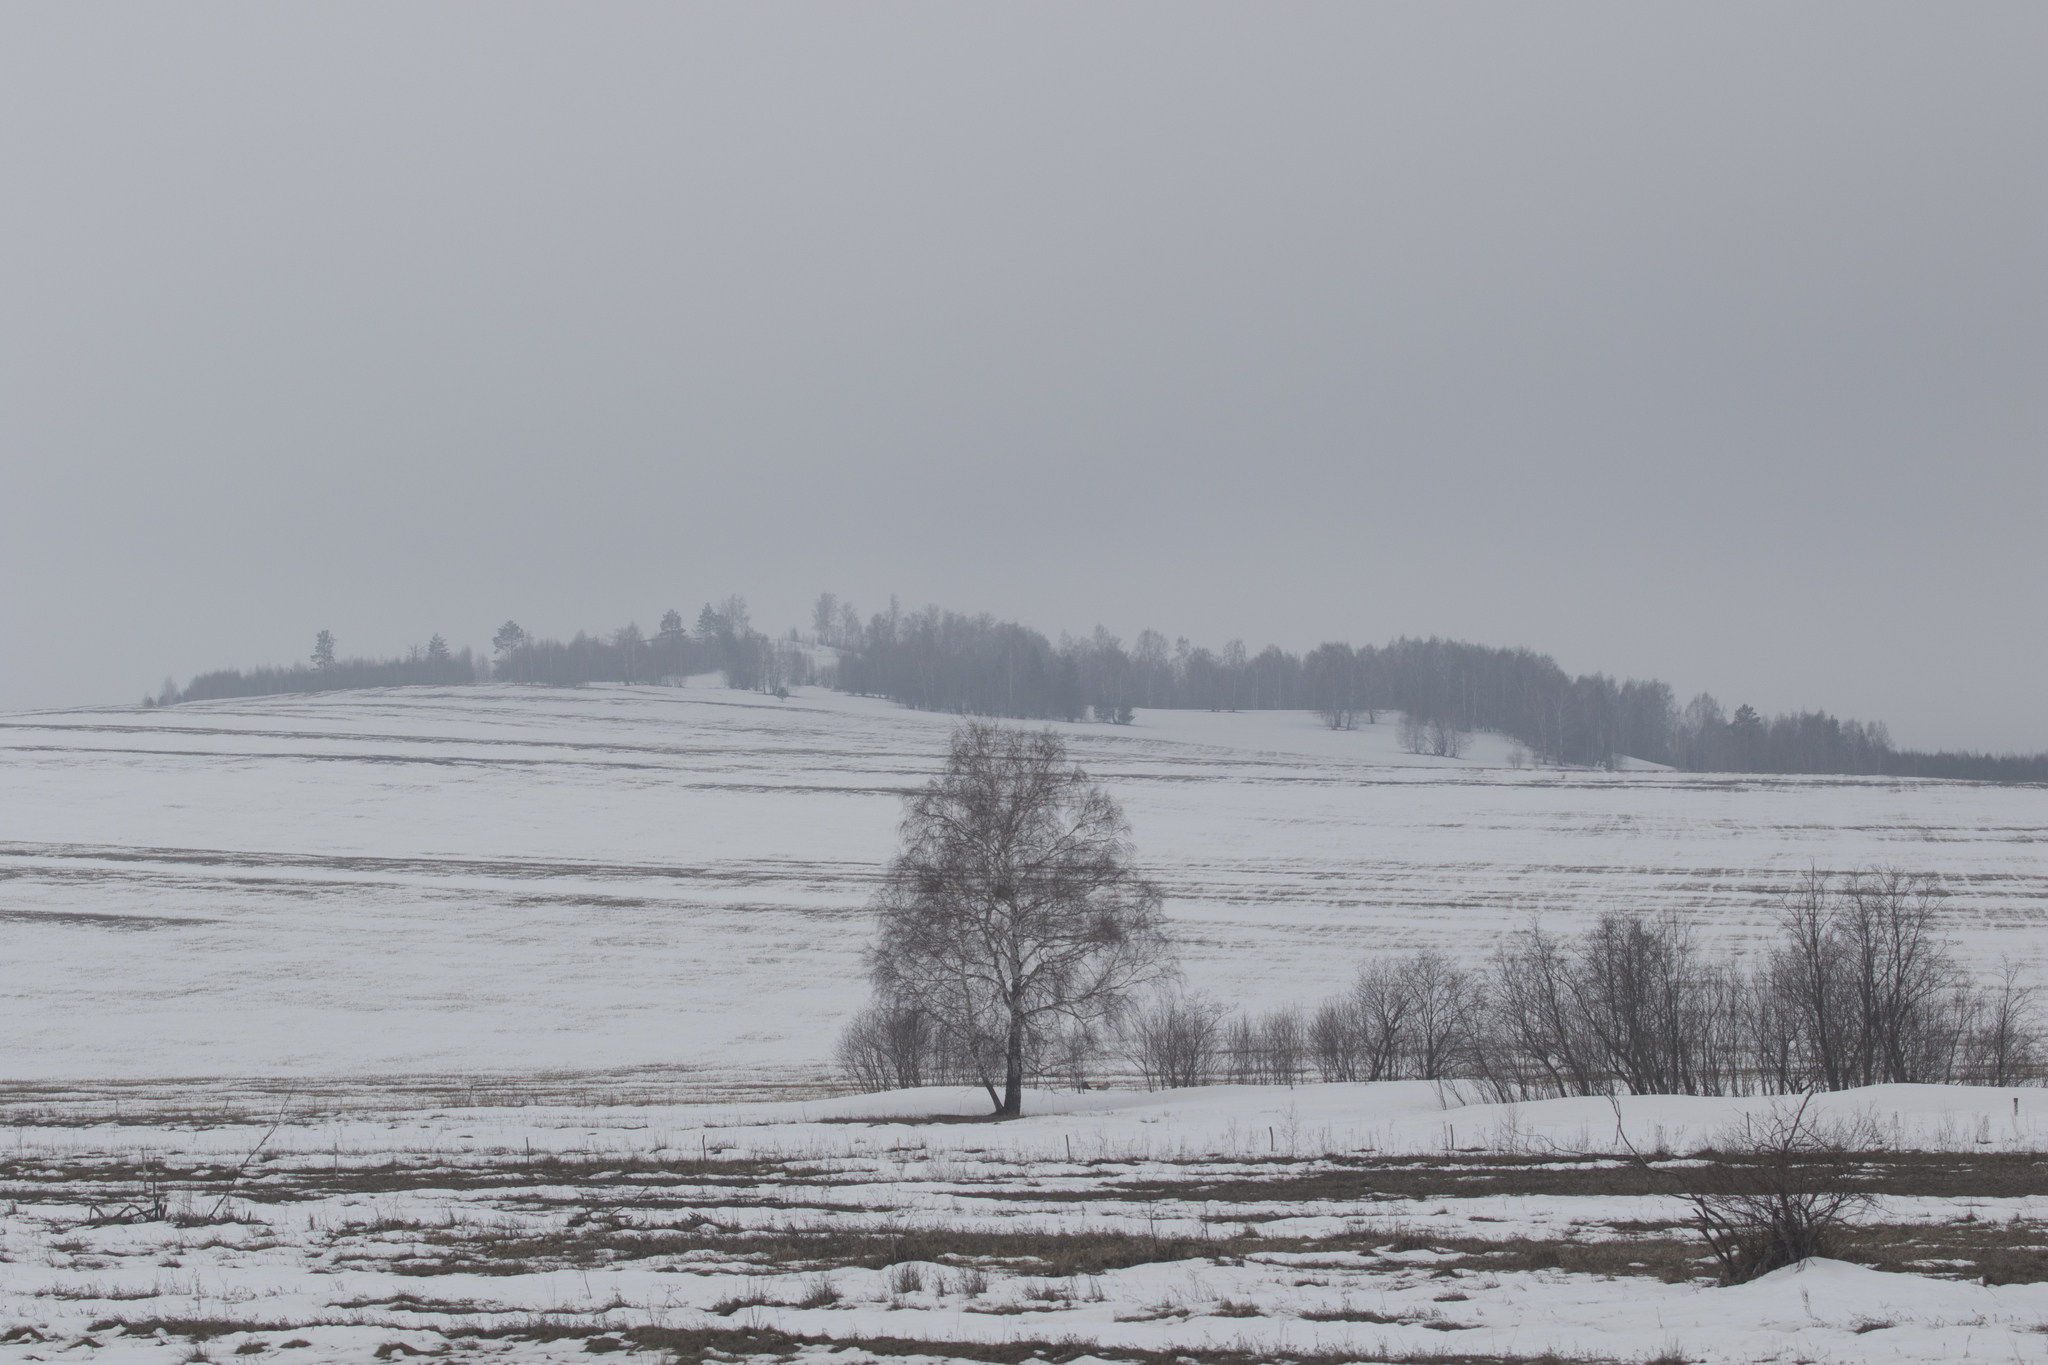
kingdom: Plantae
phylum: Tracheophyta
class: Magnoliopsida
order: Fagales
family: Betulaceae
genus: Betula
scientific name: Betula pendula
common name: Silver birch
